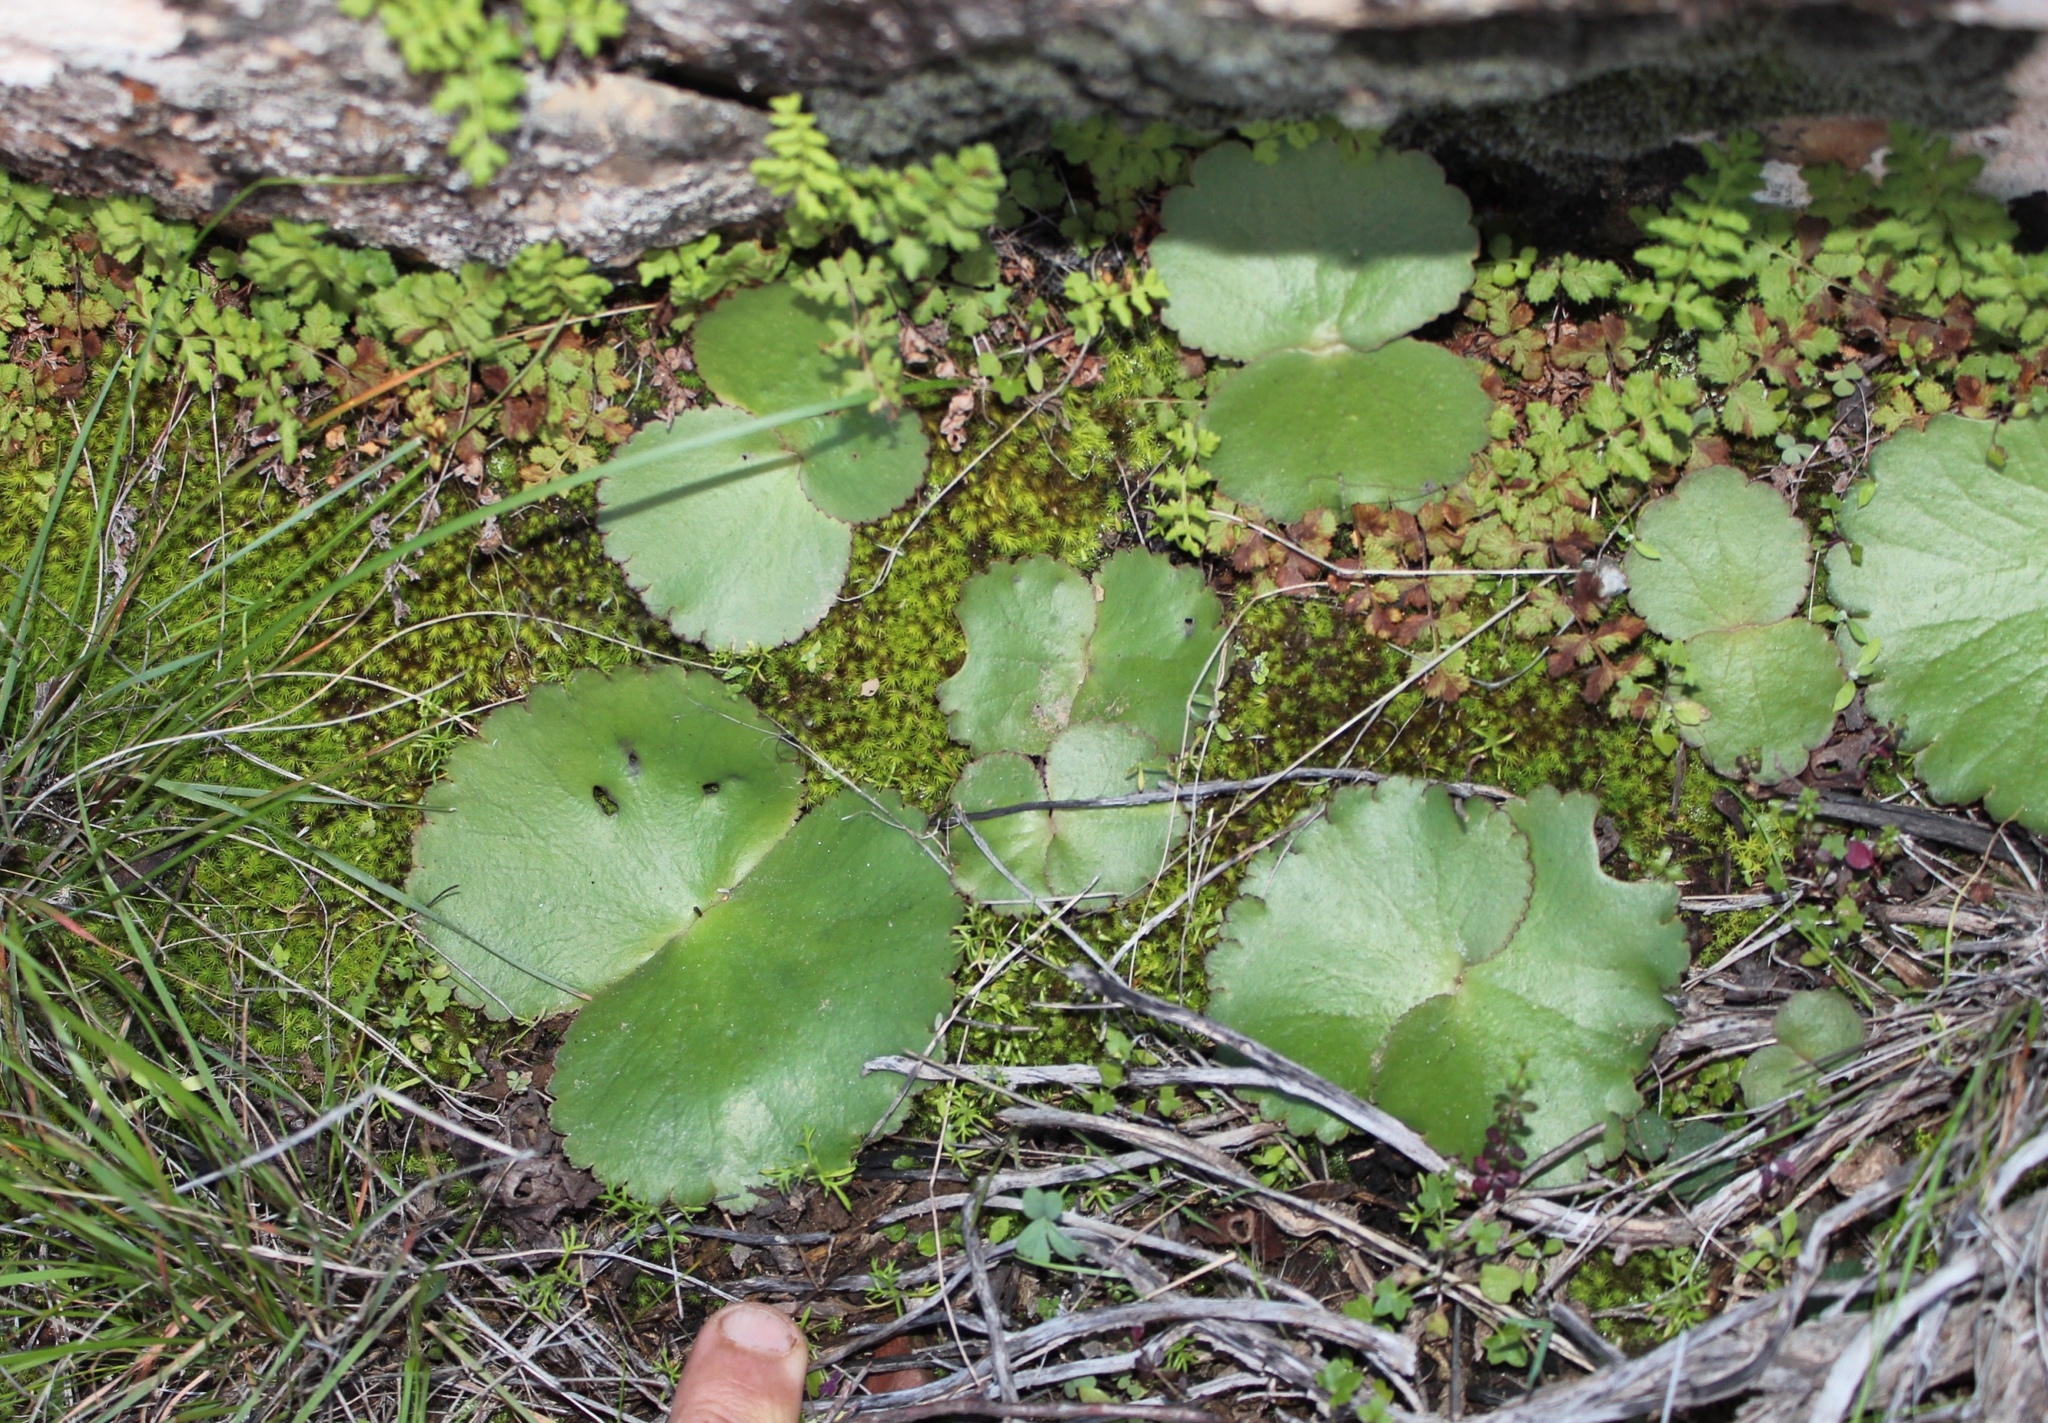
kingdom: Plantae
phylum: Tracheophyta
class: Magnoliopsida
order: Saxifragales
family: Crassulaceae
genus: Crassula
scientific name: Crassula saxifraga
